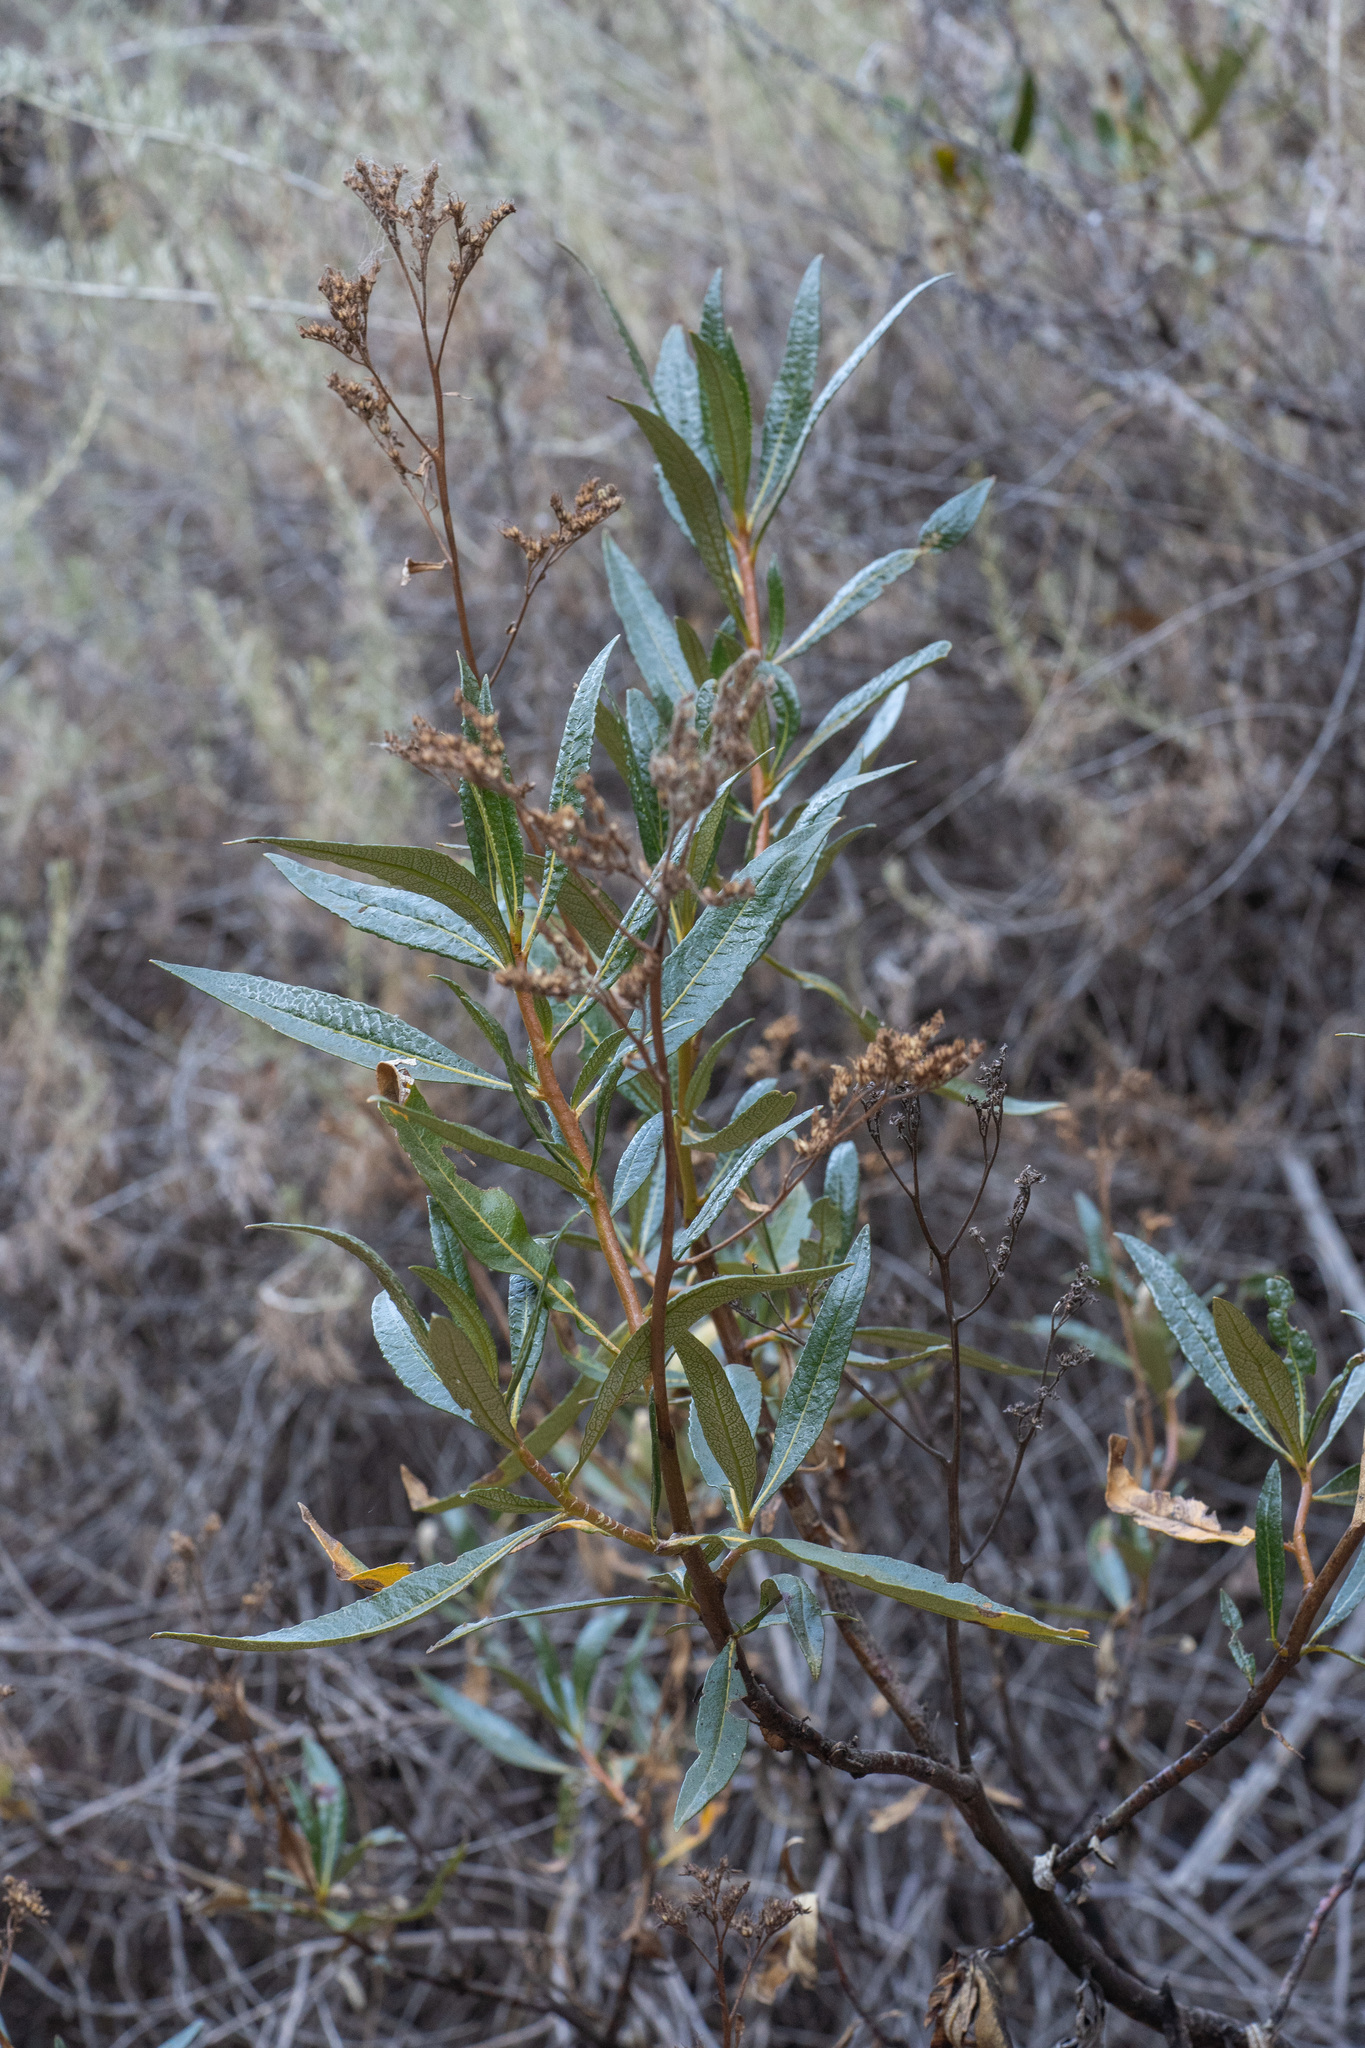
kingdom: Plantae
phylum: Tracheophyta
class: Magnoliopsida
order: Boraginales
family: Namaceae
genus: Eriodictyon
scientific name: Eriodictyon californicum
